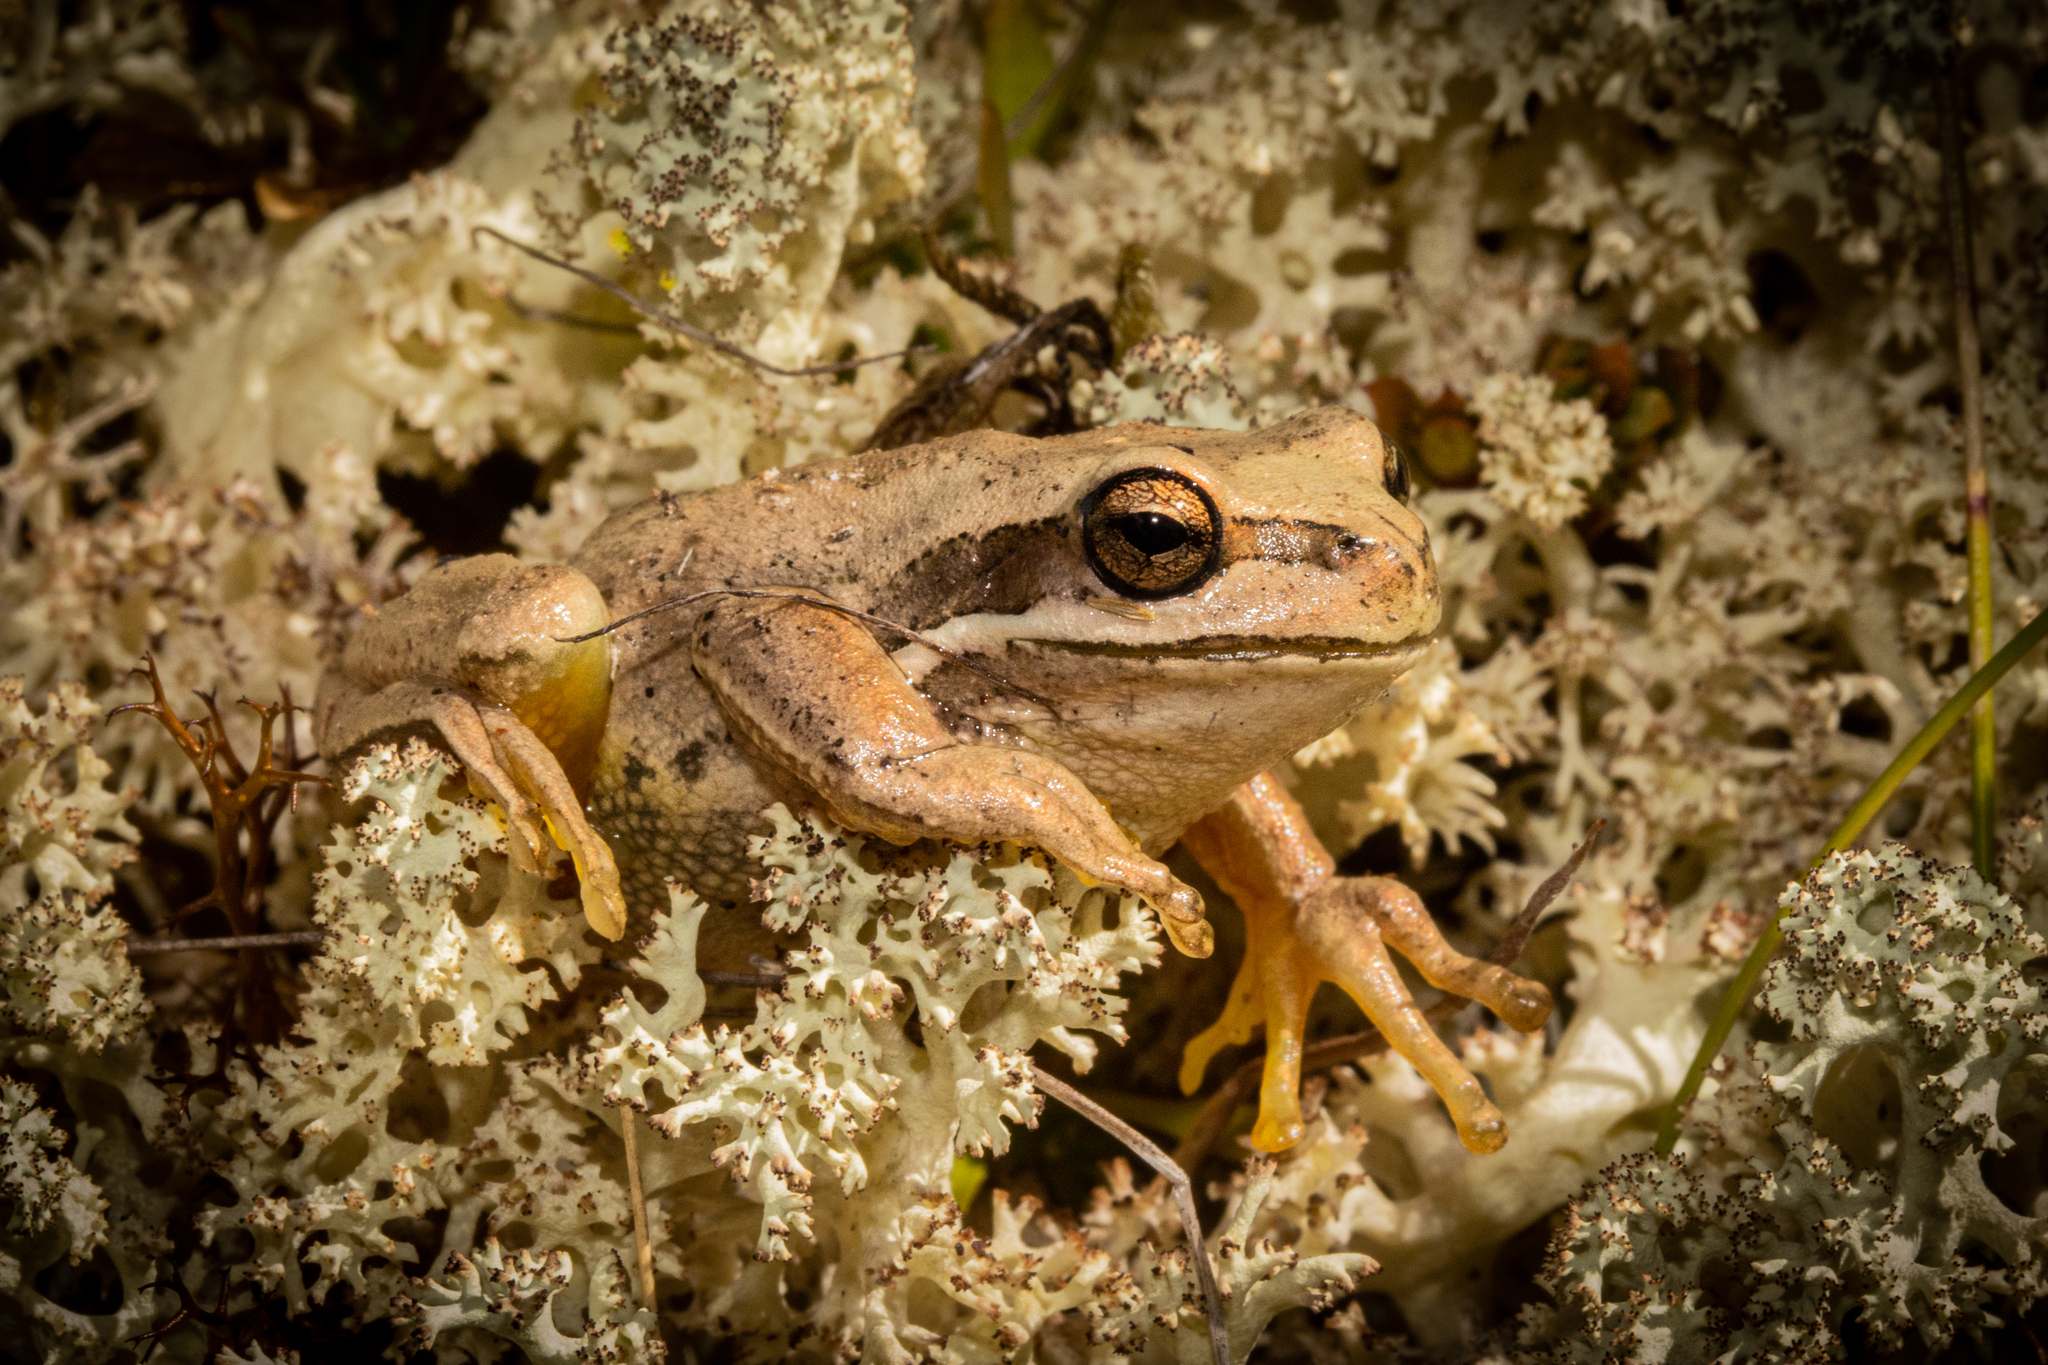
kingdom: Animalia
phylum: Chordata
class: Amphibia
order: Anura
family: Pelodryadidae
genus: Litoria
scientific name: Litoria ewingii
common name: Southern brown tree frog
